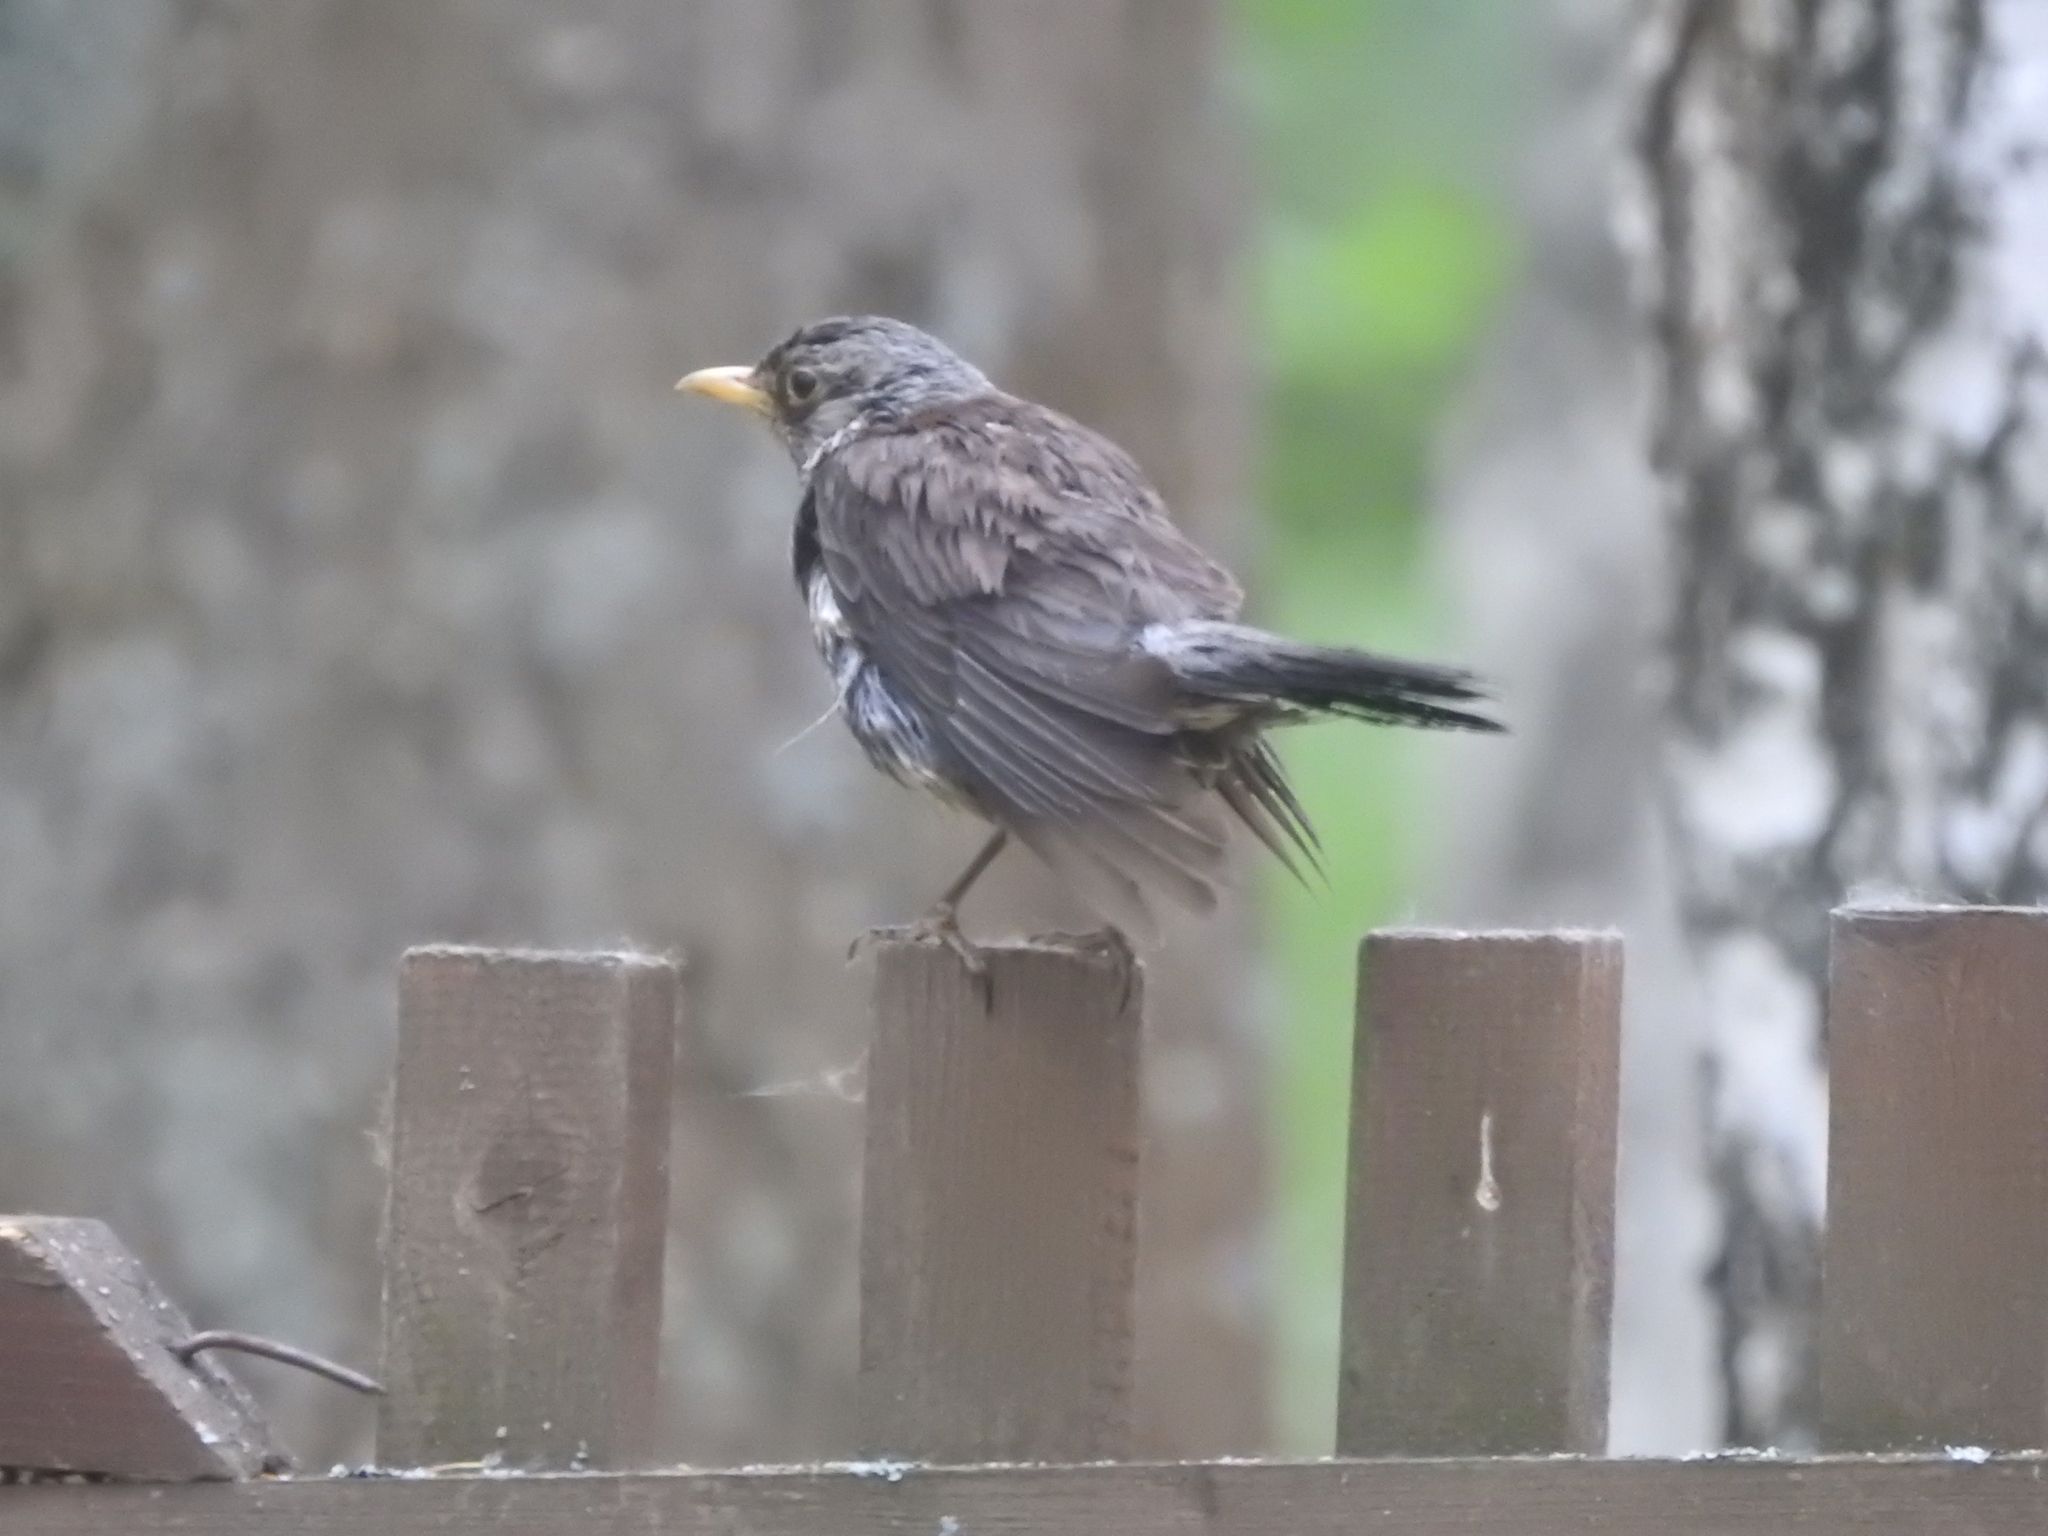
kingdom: Animalia
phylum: Chordata
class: Aves
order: Passeriformes
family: Turdidae
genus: Turdus
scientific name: Turdus pilaris
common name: Fieldfare
